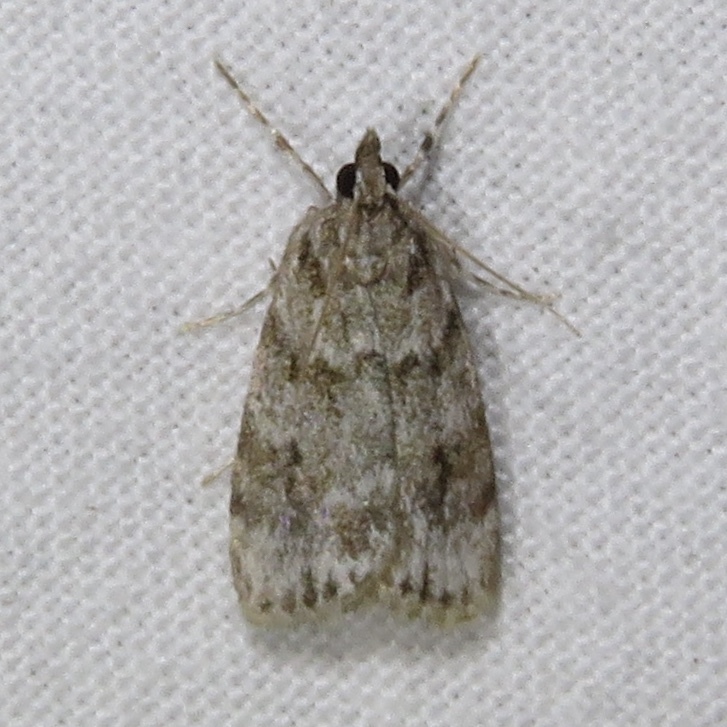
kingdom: Animalia
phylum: Arthropoda
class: Insecta
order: Lepidoptera
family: Crambidae
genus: Scoparia
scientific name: Scoparia basalis
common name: Many-spotted scoparia moth
